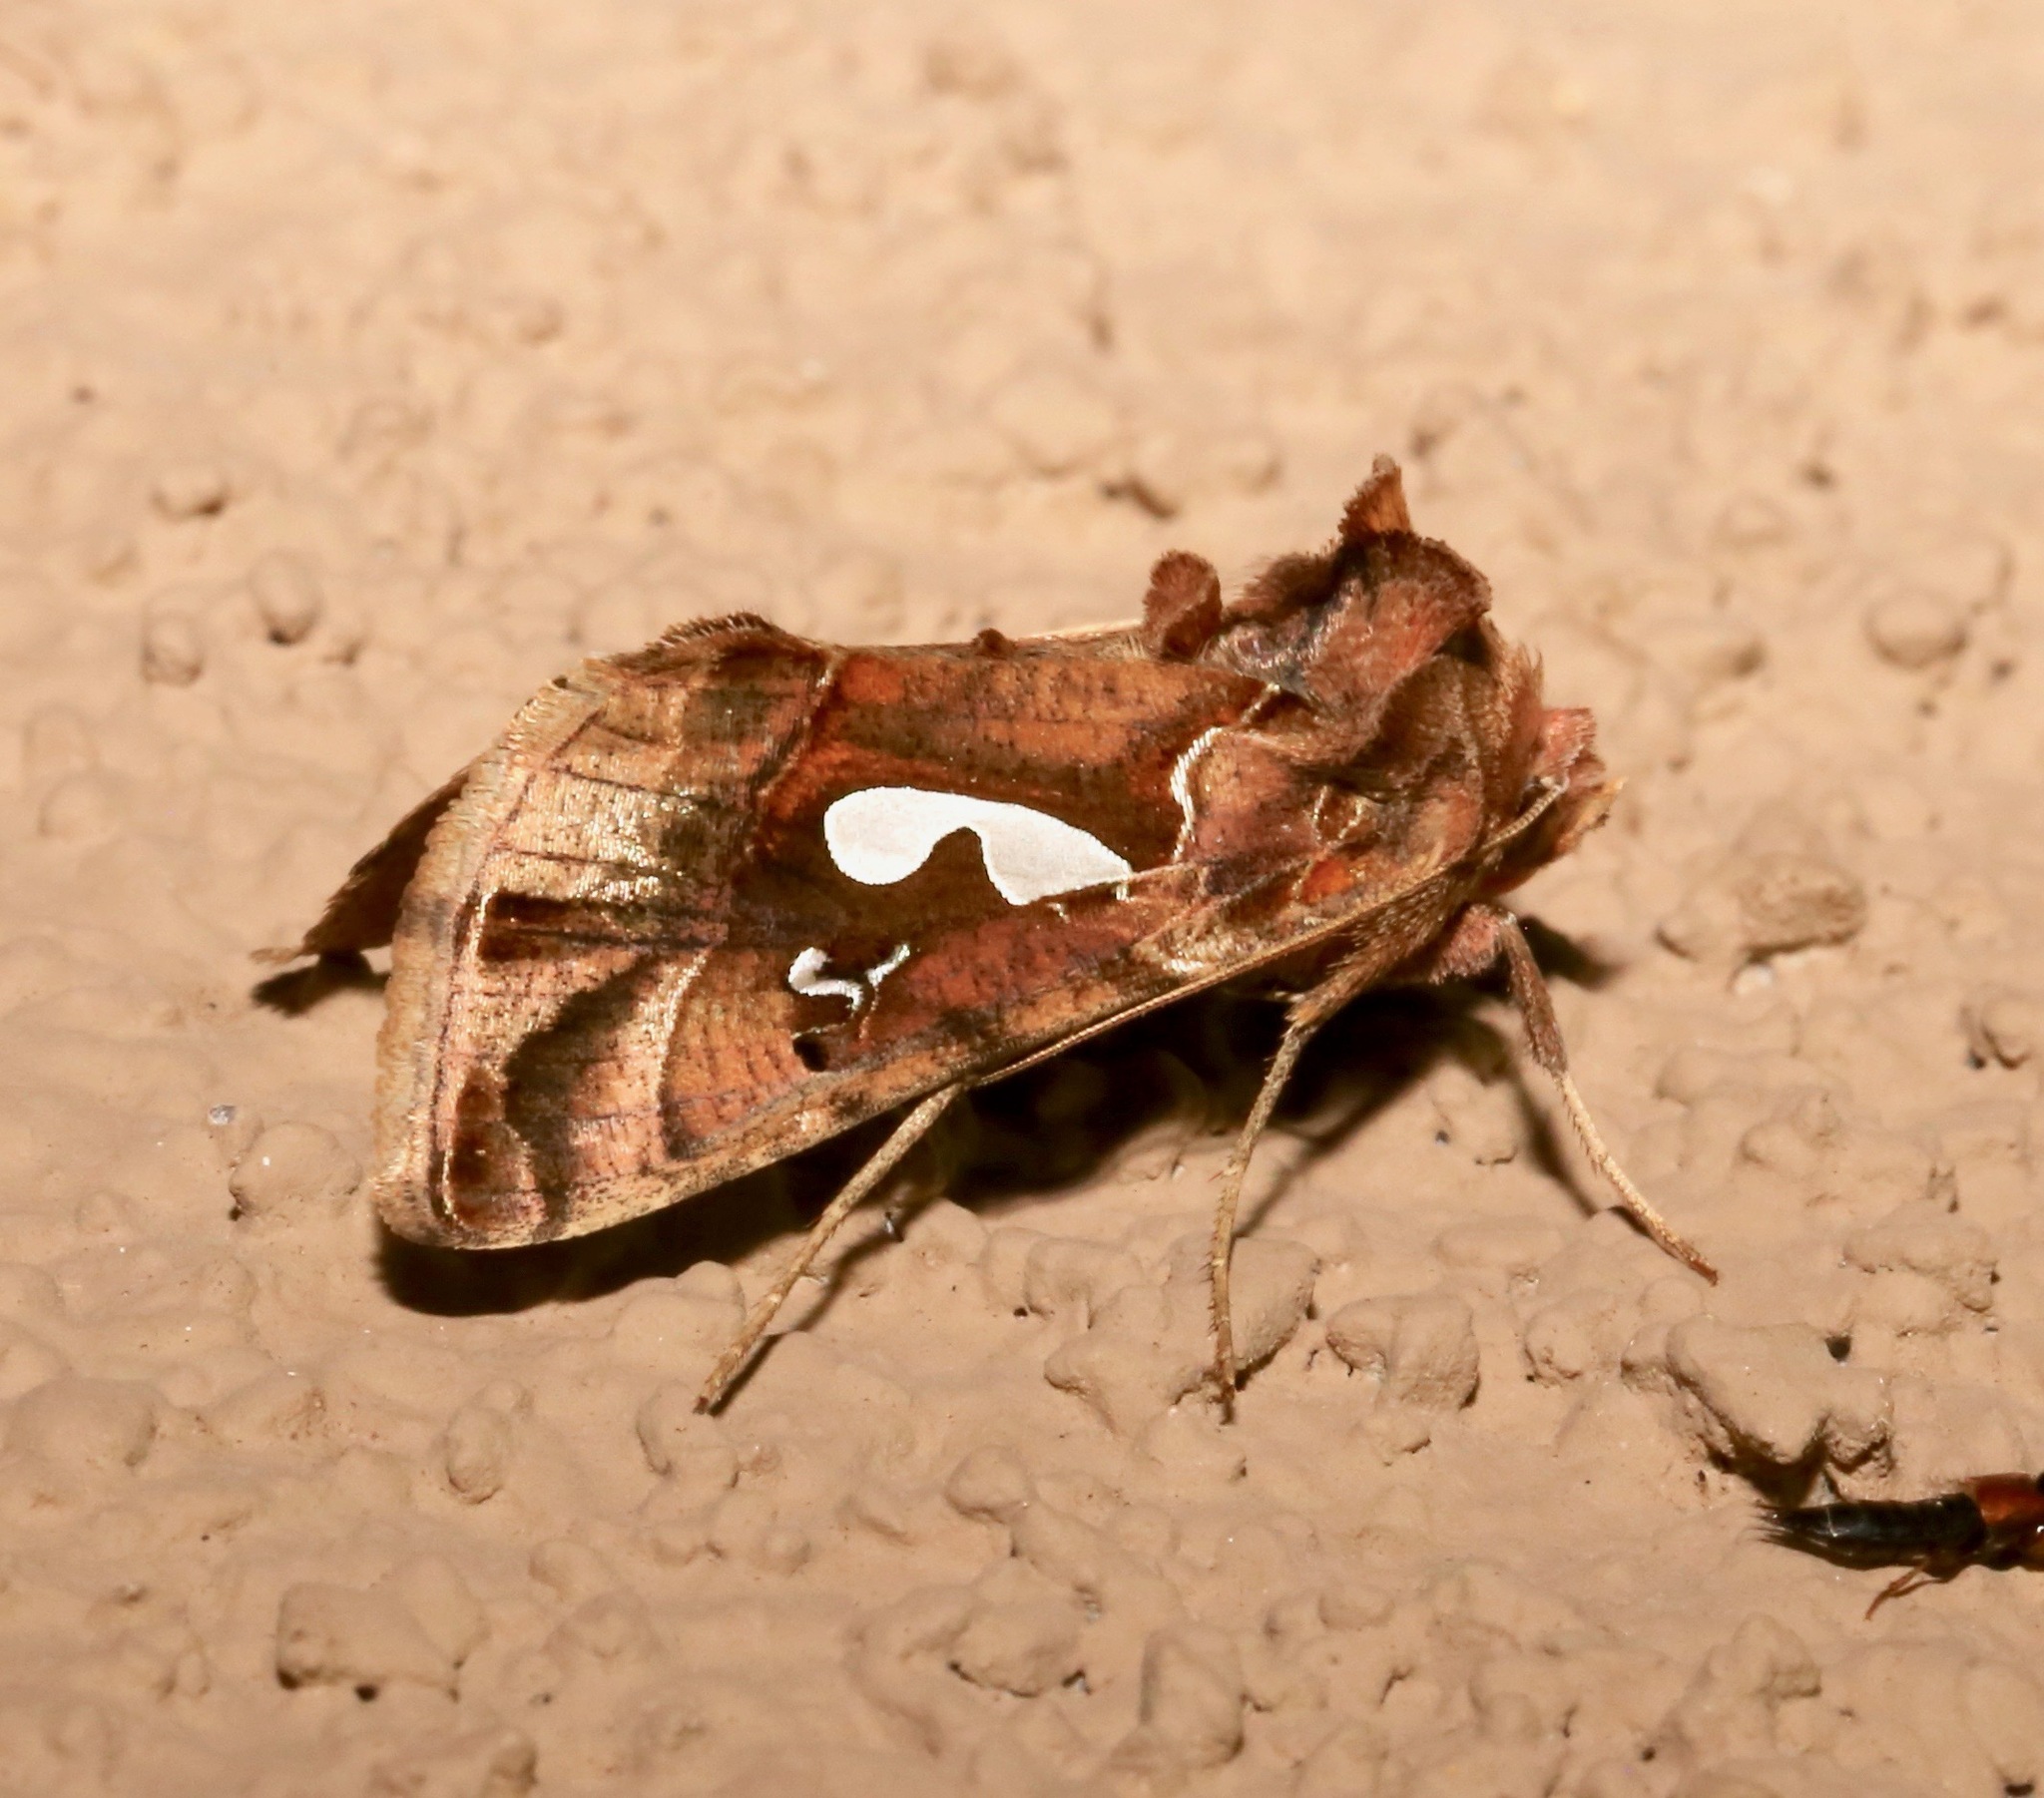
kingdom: Animalia
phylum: Arthropoda
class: Insecta
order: Lepidoptera
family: Noctuidae
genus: Megalographa
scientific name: Megalographa biloba
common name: Cutworm
